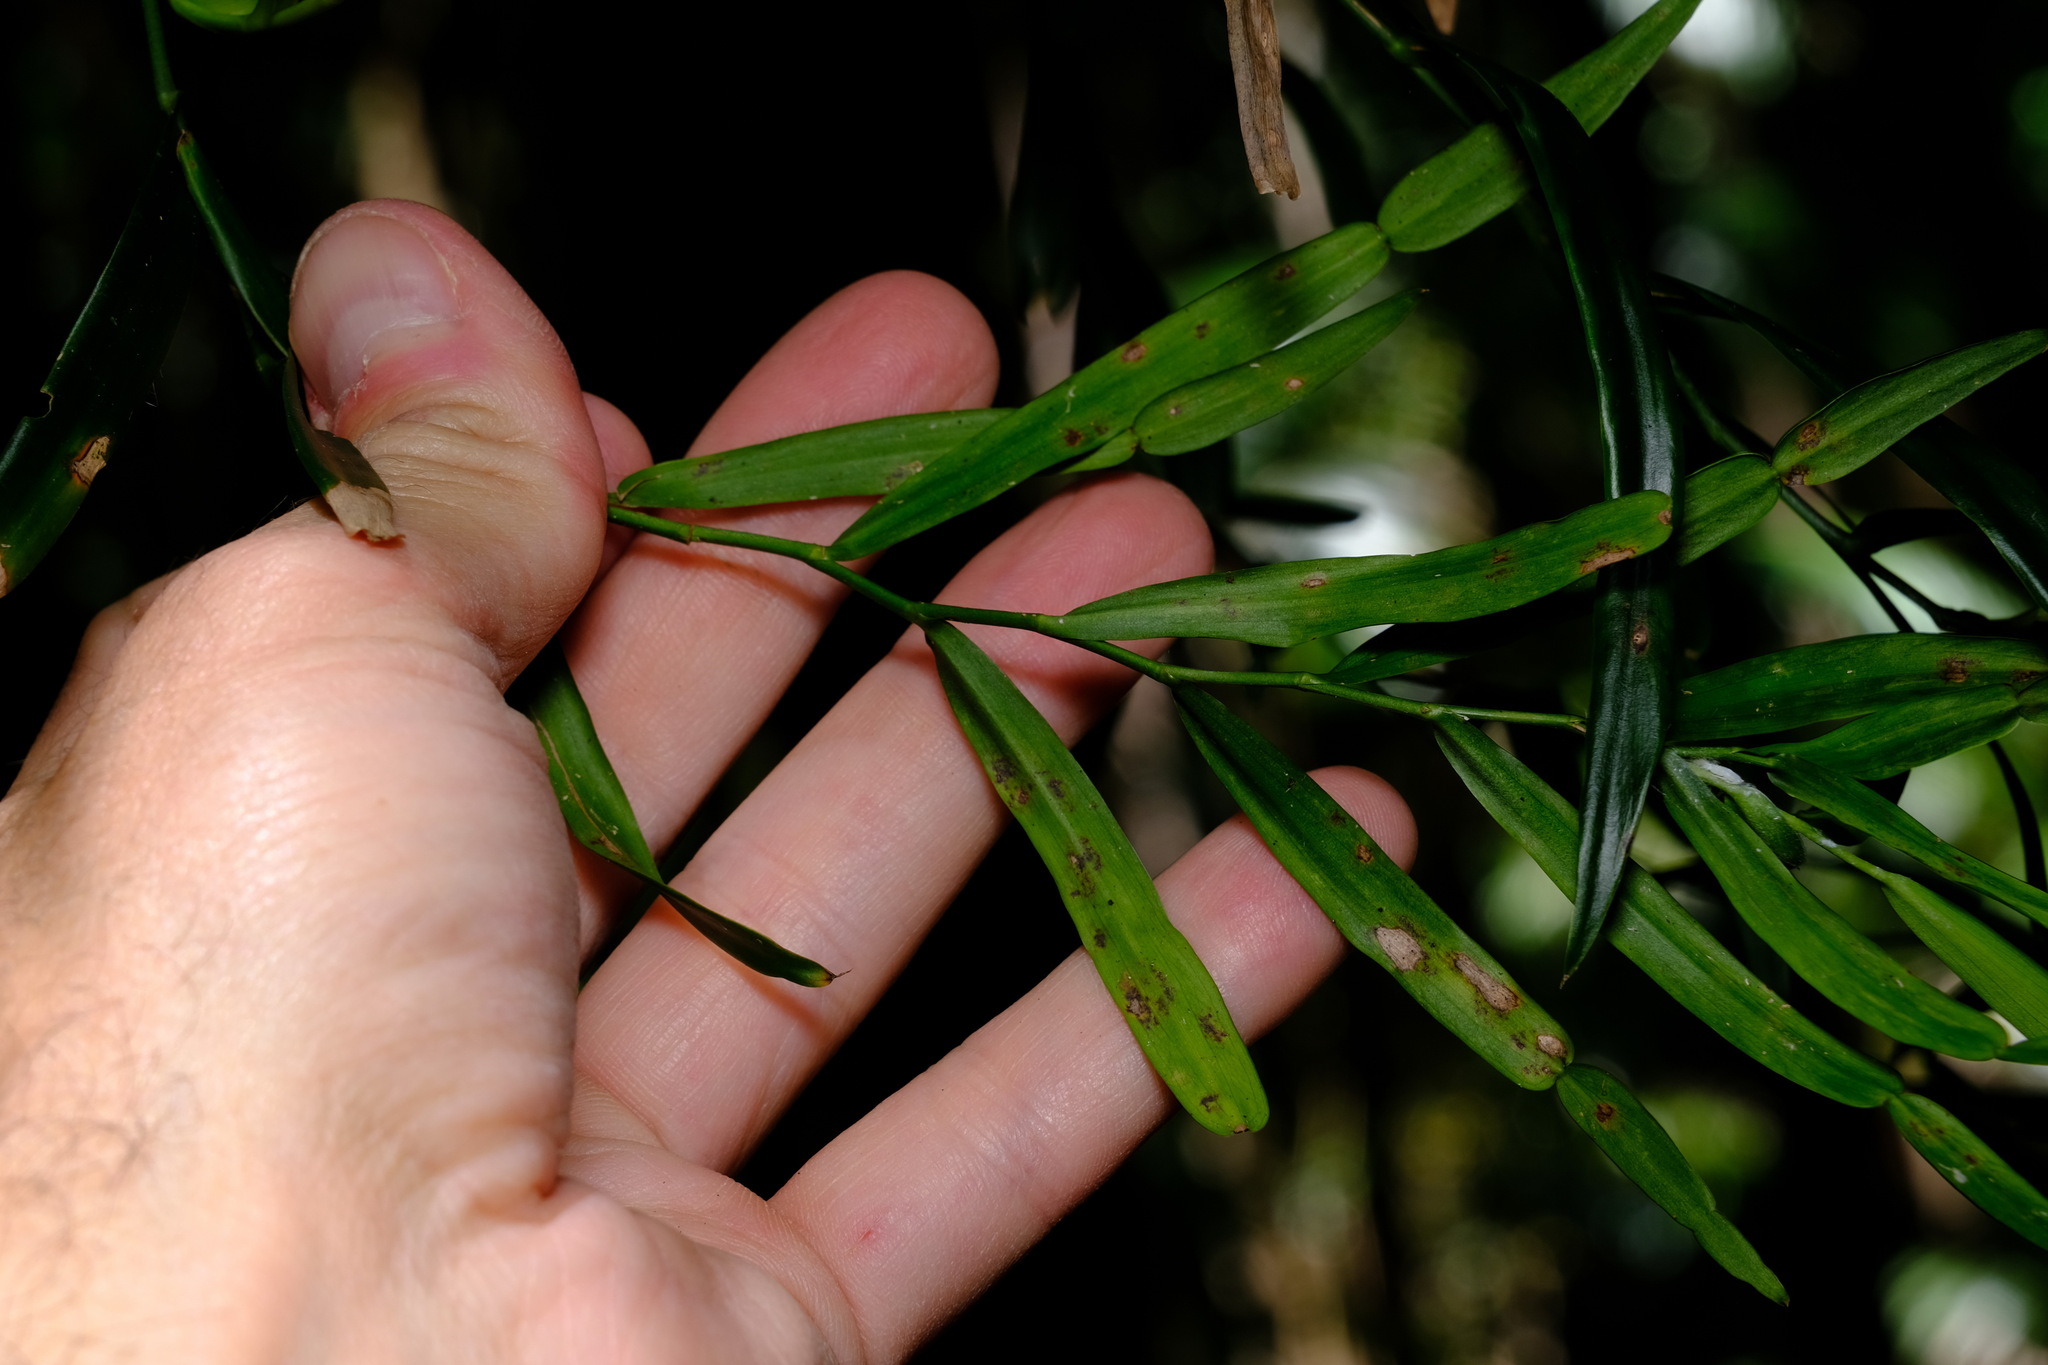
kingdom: Plantae
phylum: Tracheophyta
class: Liliopsida
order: Alismatales
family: Araceae
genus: Pothos
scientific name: Pothos longipes
